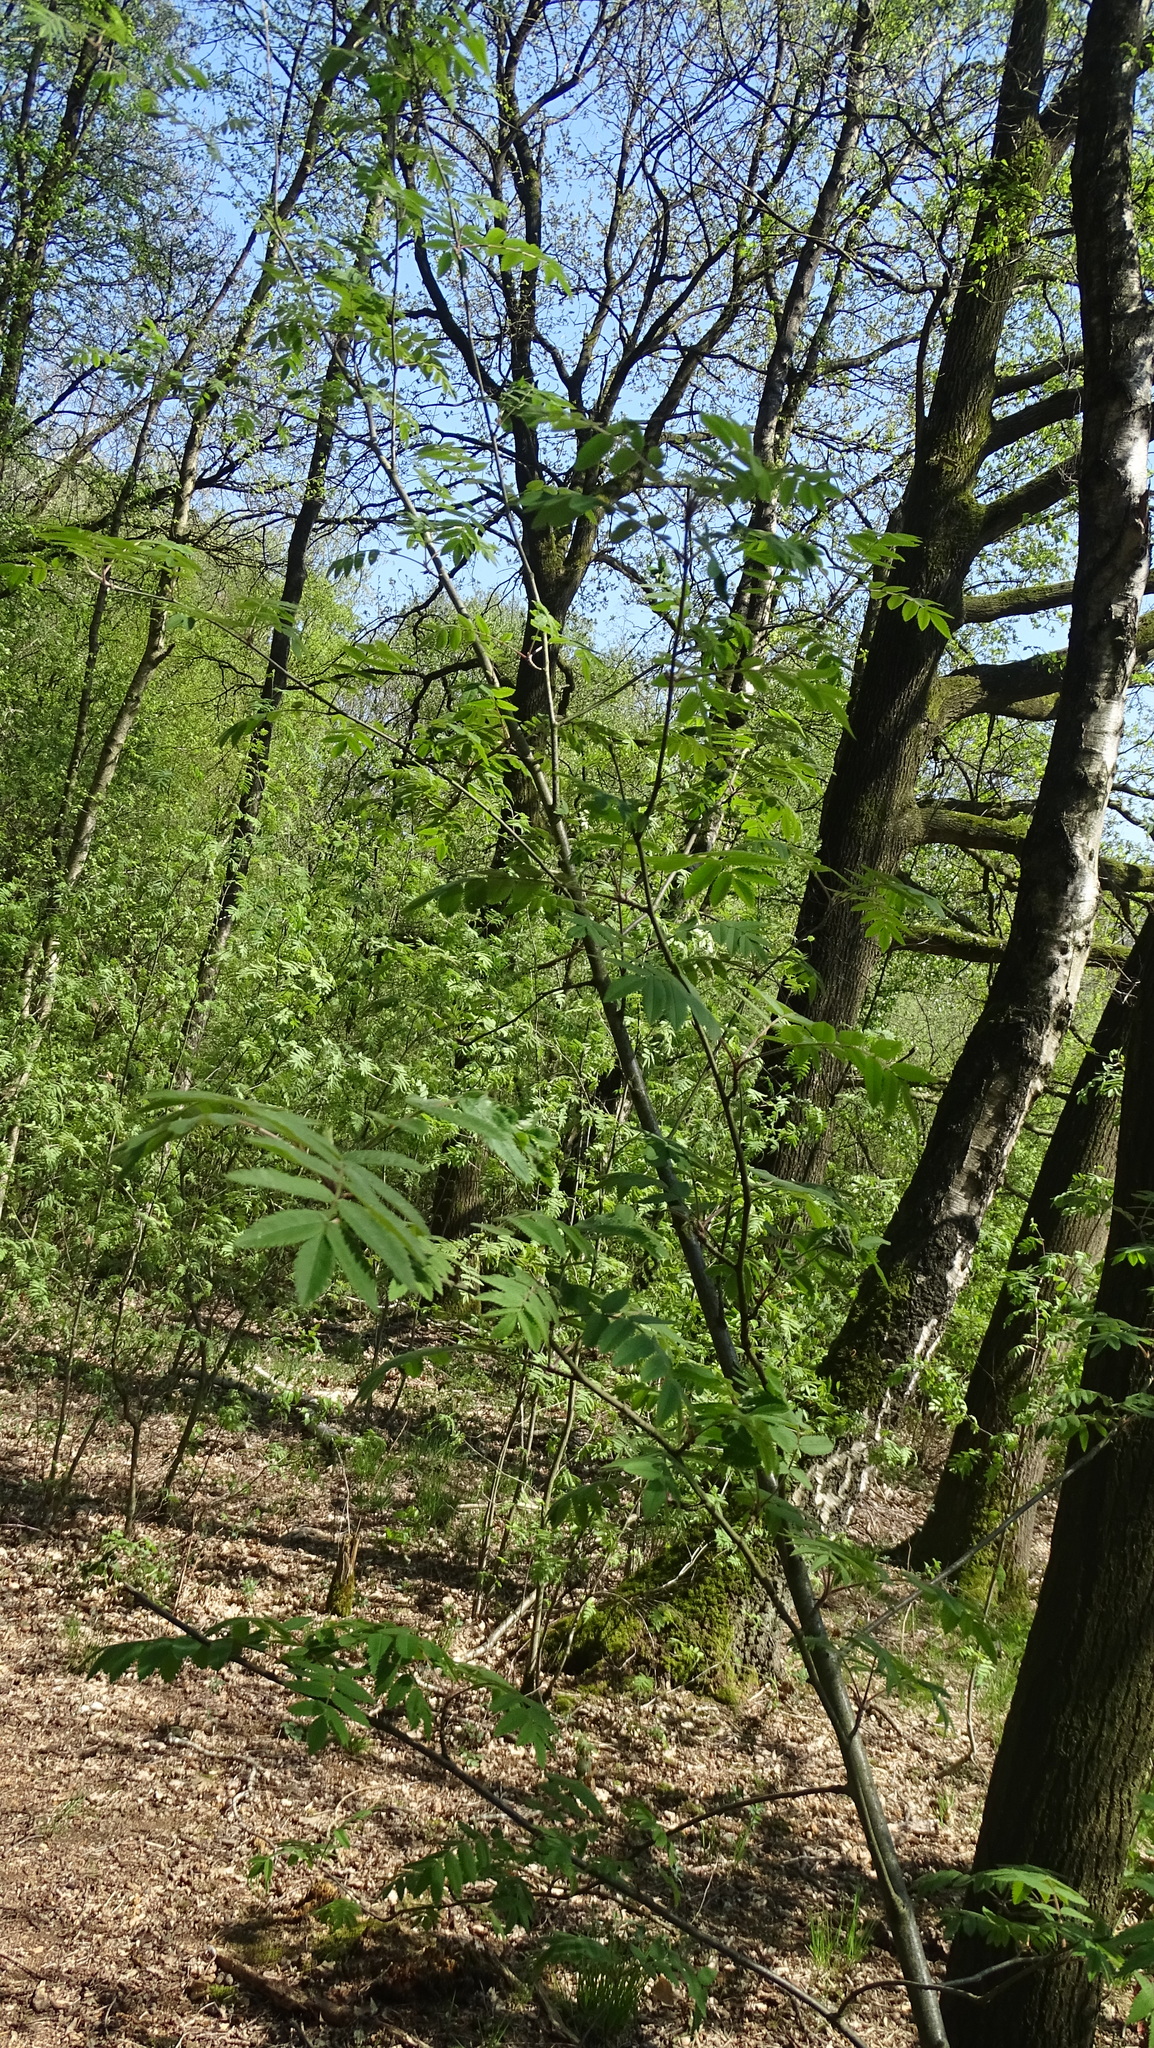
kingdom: Plantae
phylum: Tracheophyta
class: Magnoliopsida
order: Rosales
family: Rosaceae
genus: Sorbus
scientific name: Sorbus aucuparia
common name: Rowan
